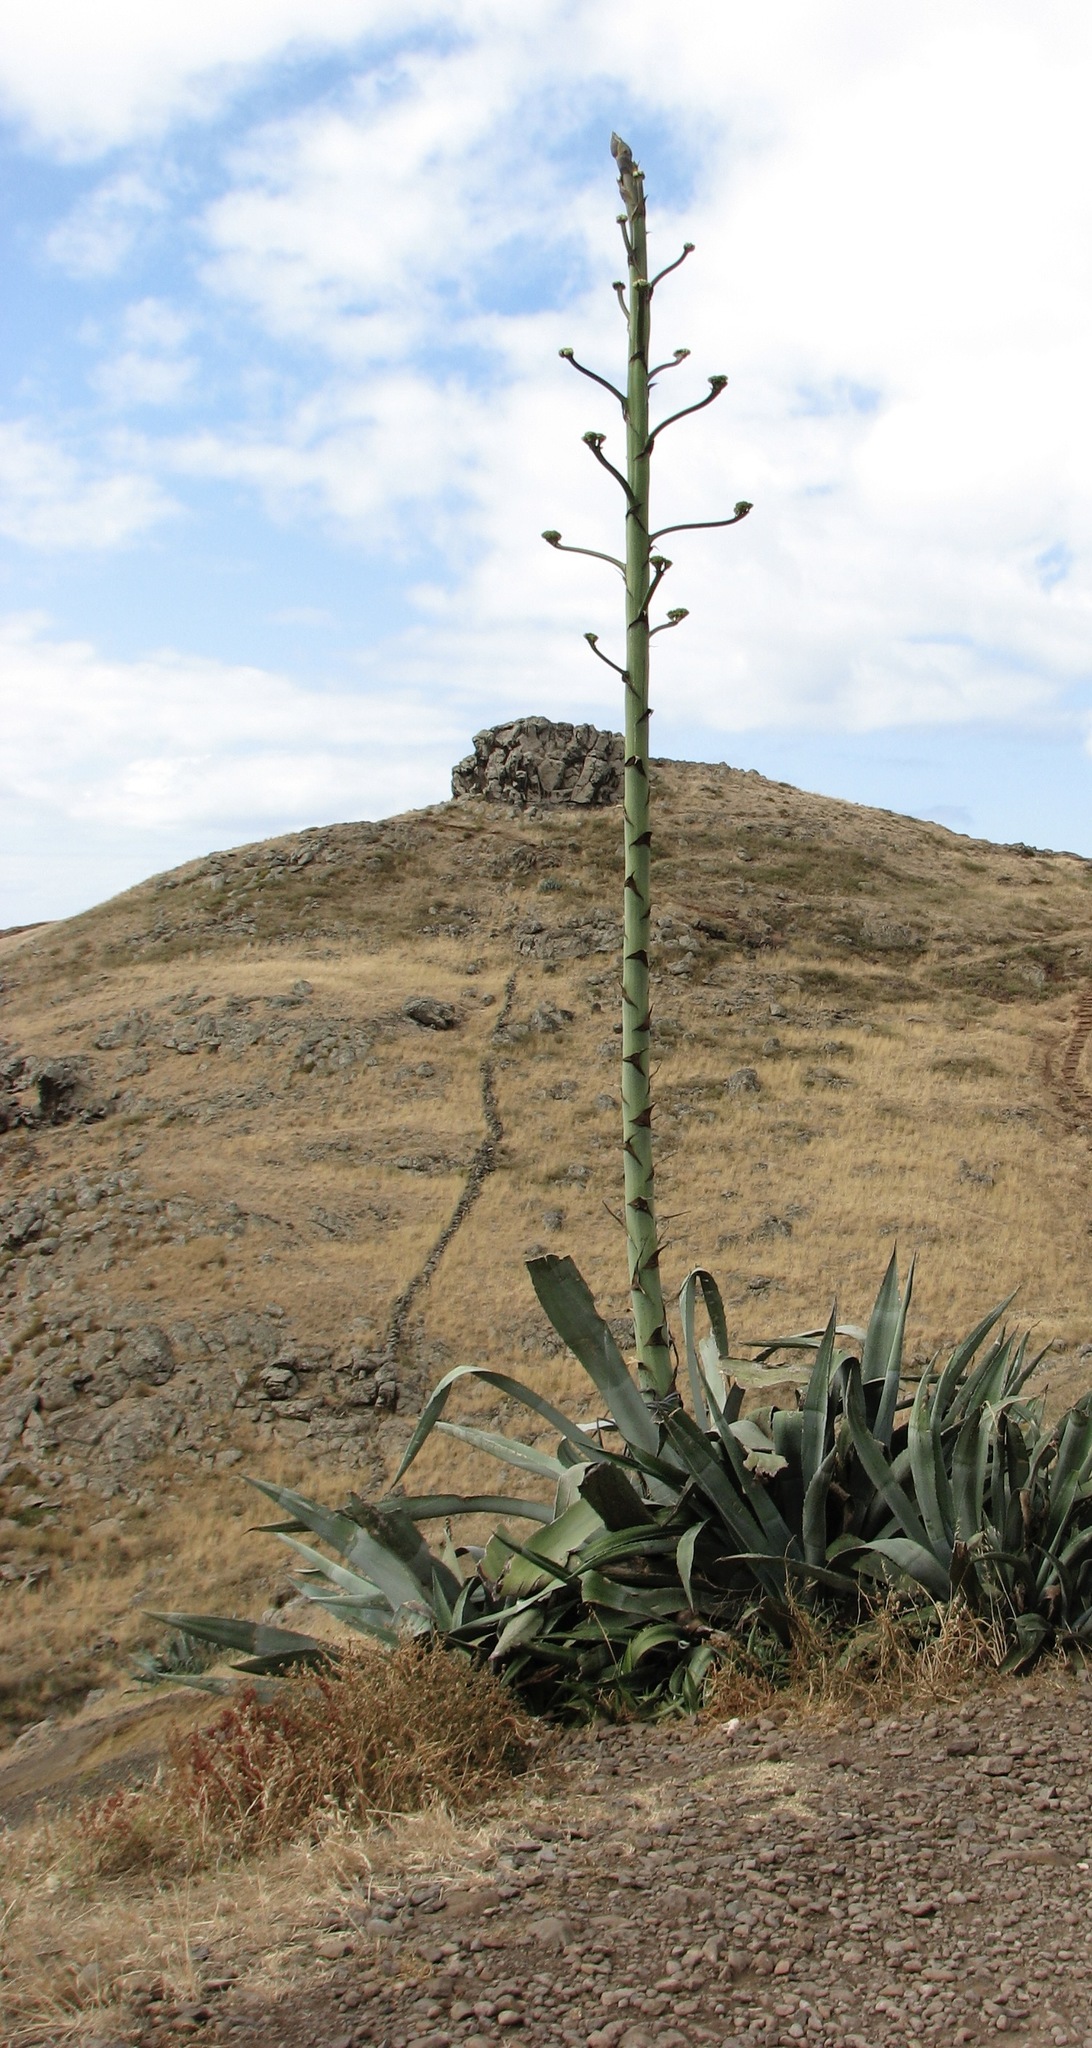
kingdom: Plantae
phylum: Tracheophyta
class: Liliopsida
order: Asparagales
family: Asparagaceae
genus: Agave
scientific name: Agave americana
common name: Centuryplant
